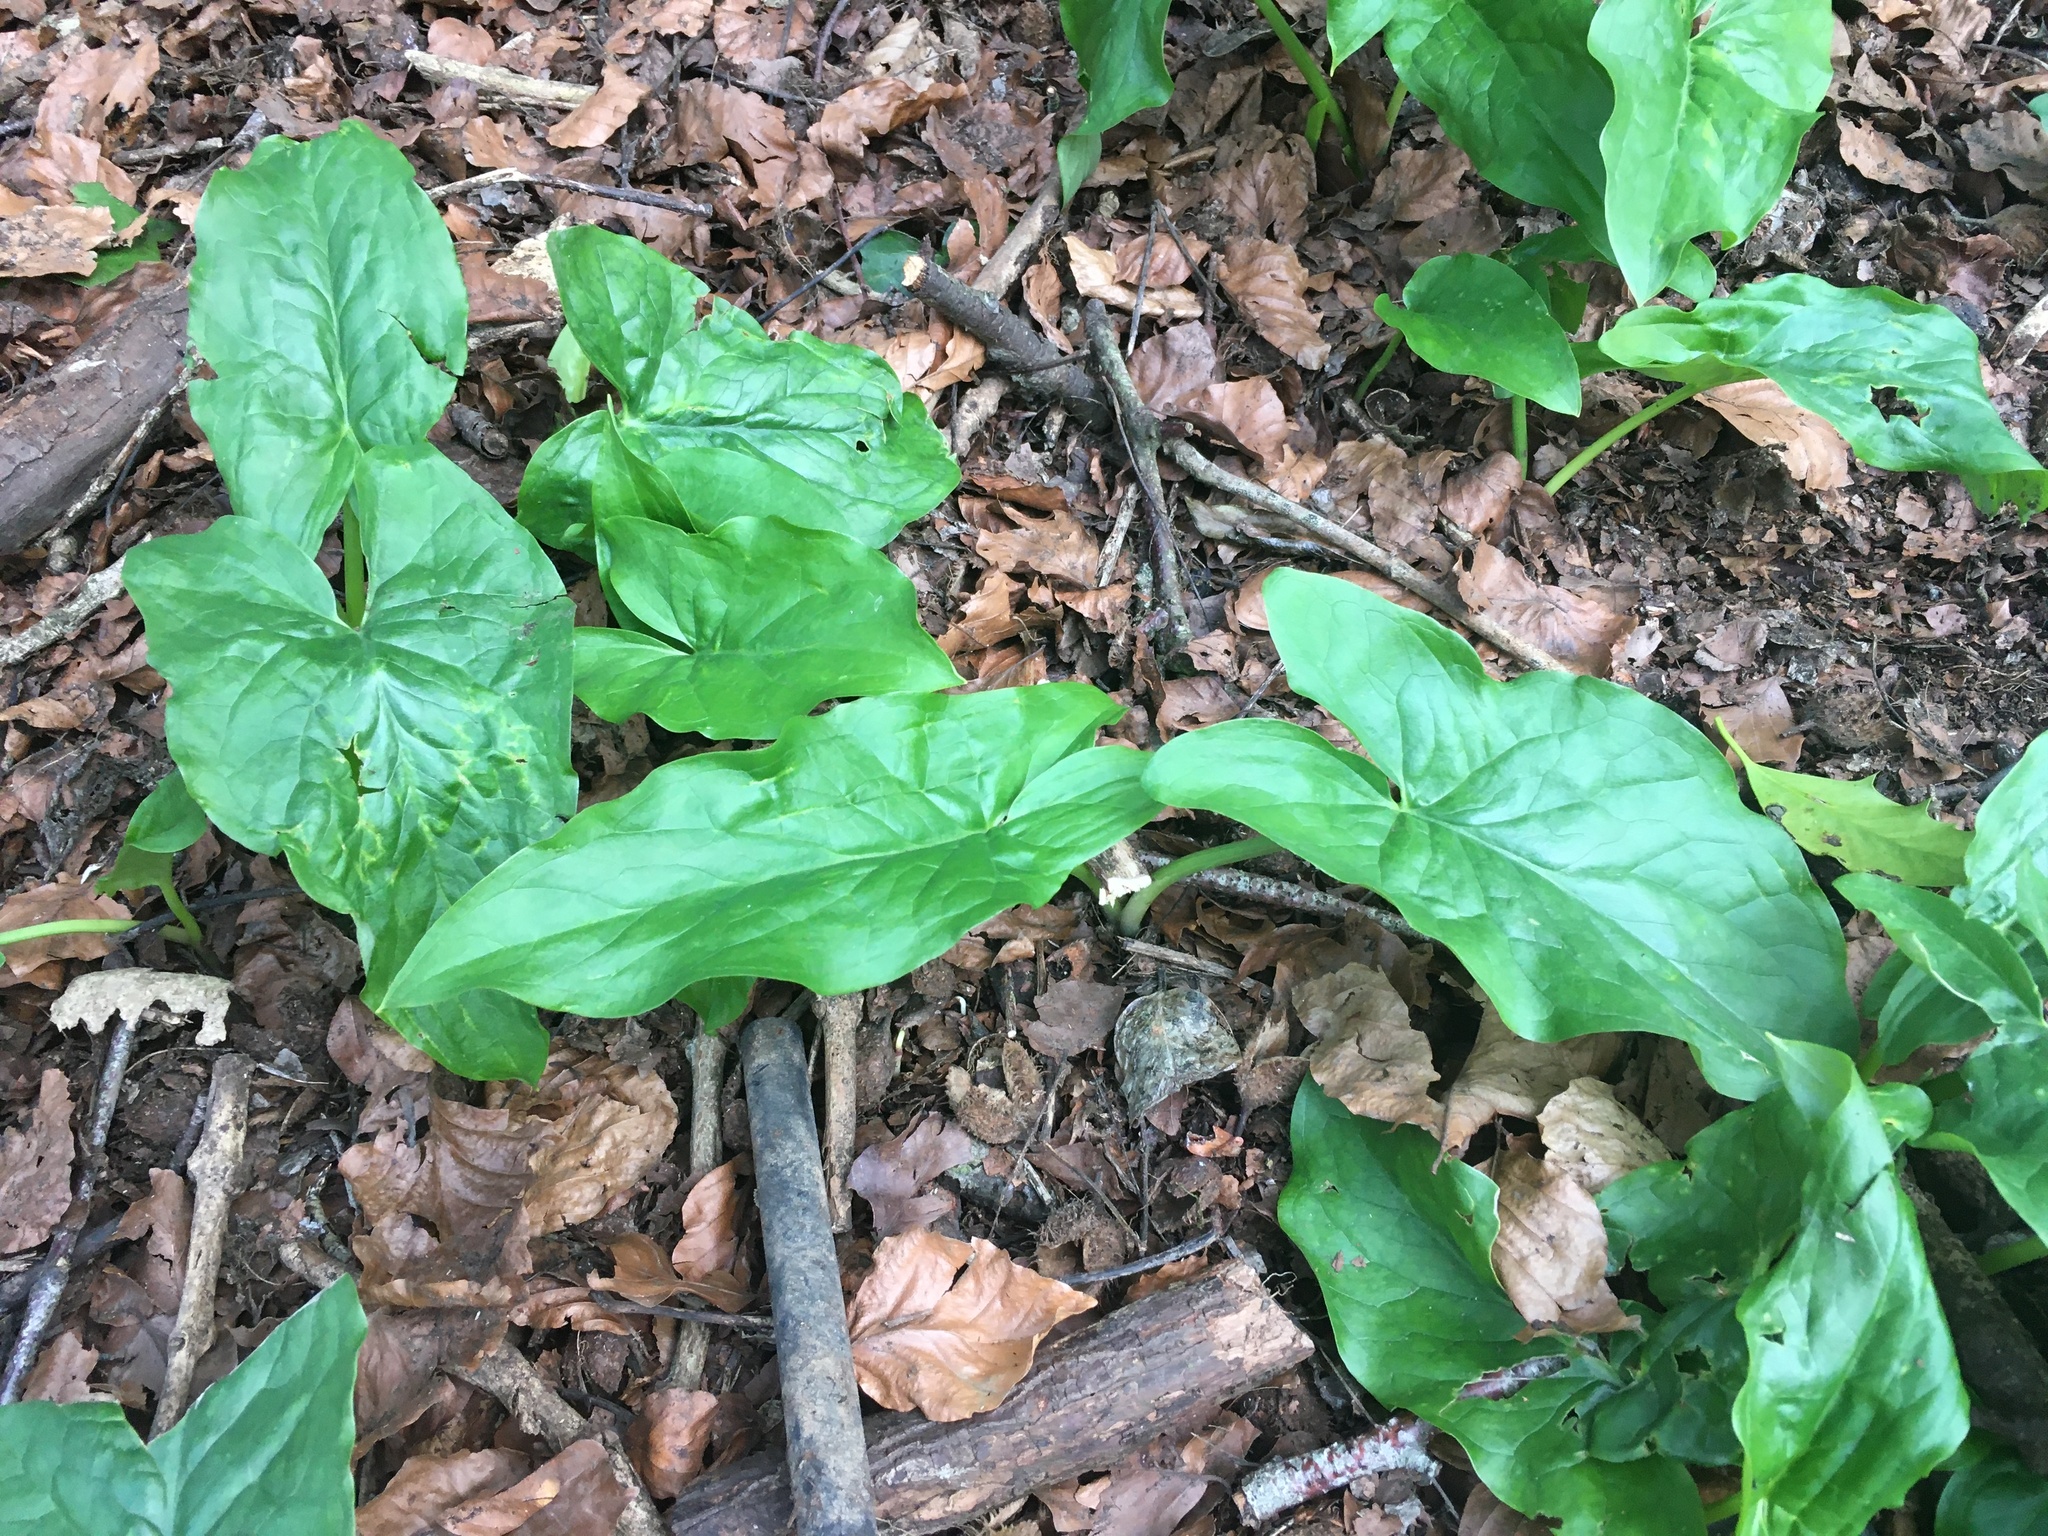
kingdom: Plantae
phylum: Tracheophyta
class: Liliopsida
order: Alismatales
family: Araceae
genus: Arum
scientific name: Arum maculatum
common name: Lords-and-ladies
